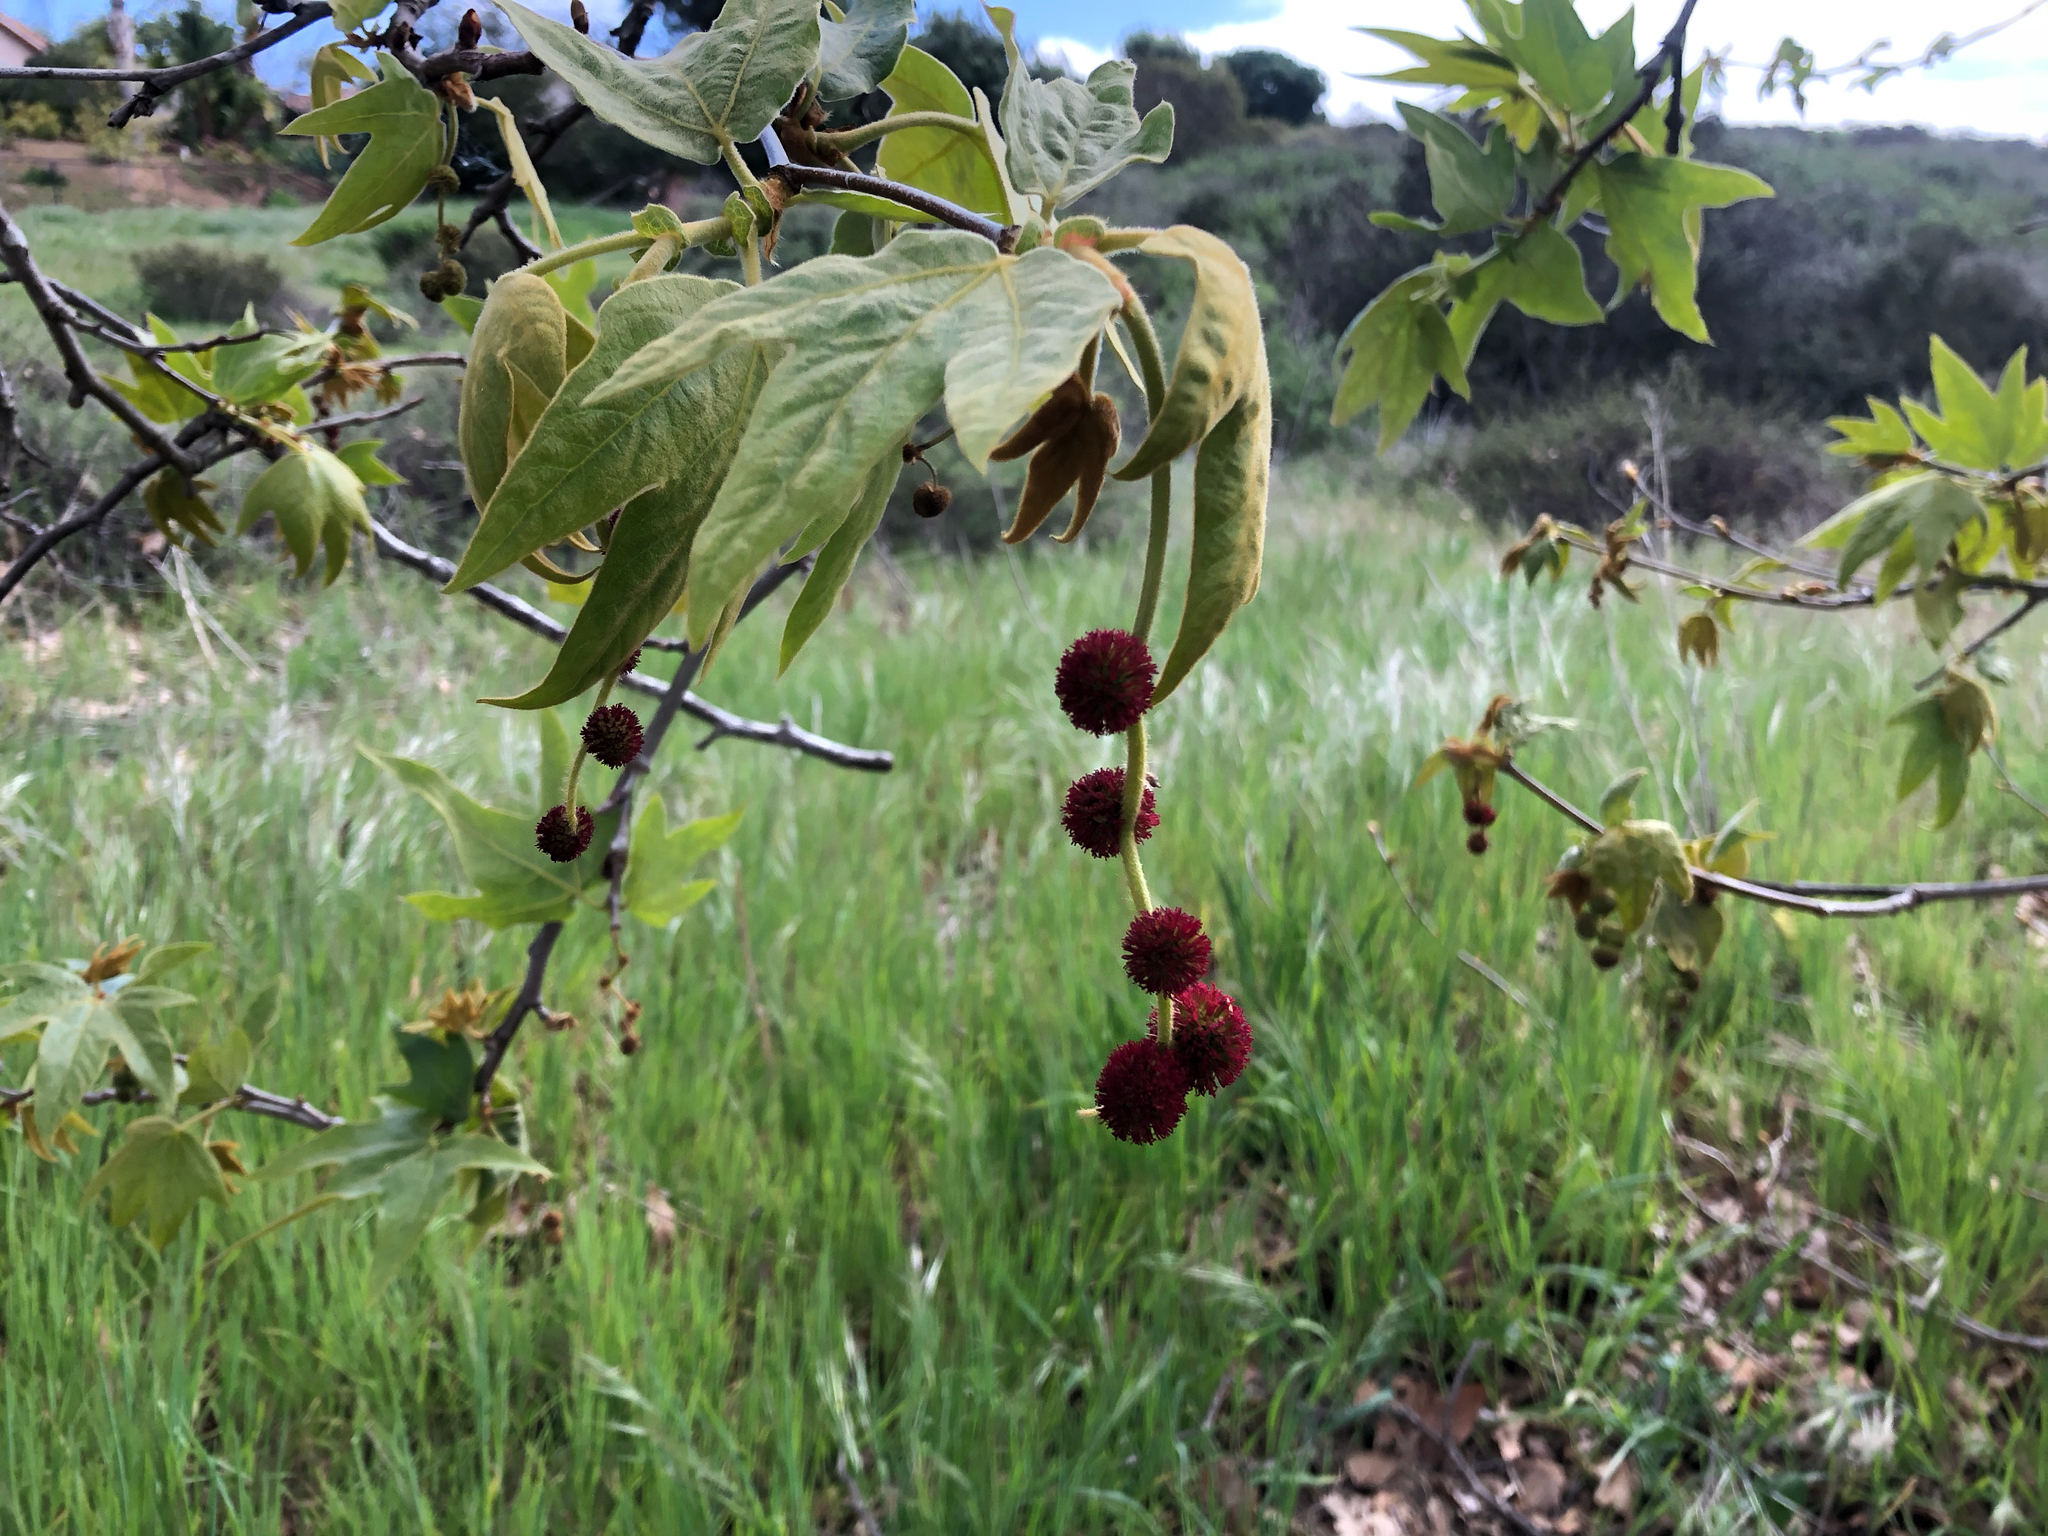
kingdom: Plantae
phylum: Tracheophyta
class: Magnoliopsida
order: Proteales
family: Platanaceae
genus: Platanus
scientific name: Platanus racemosa
